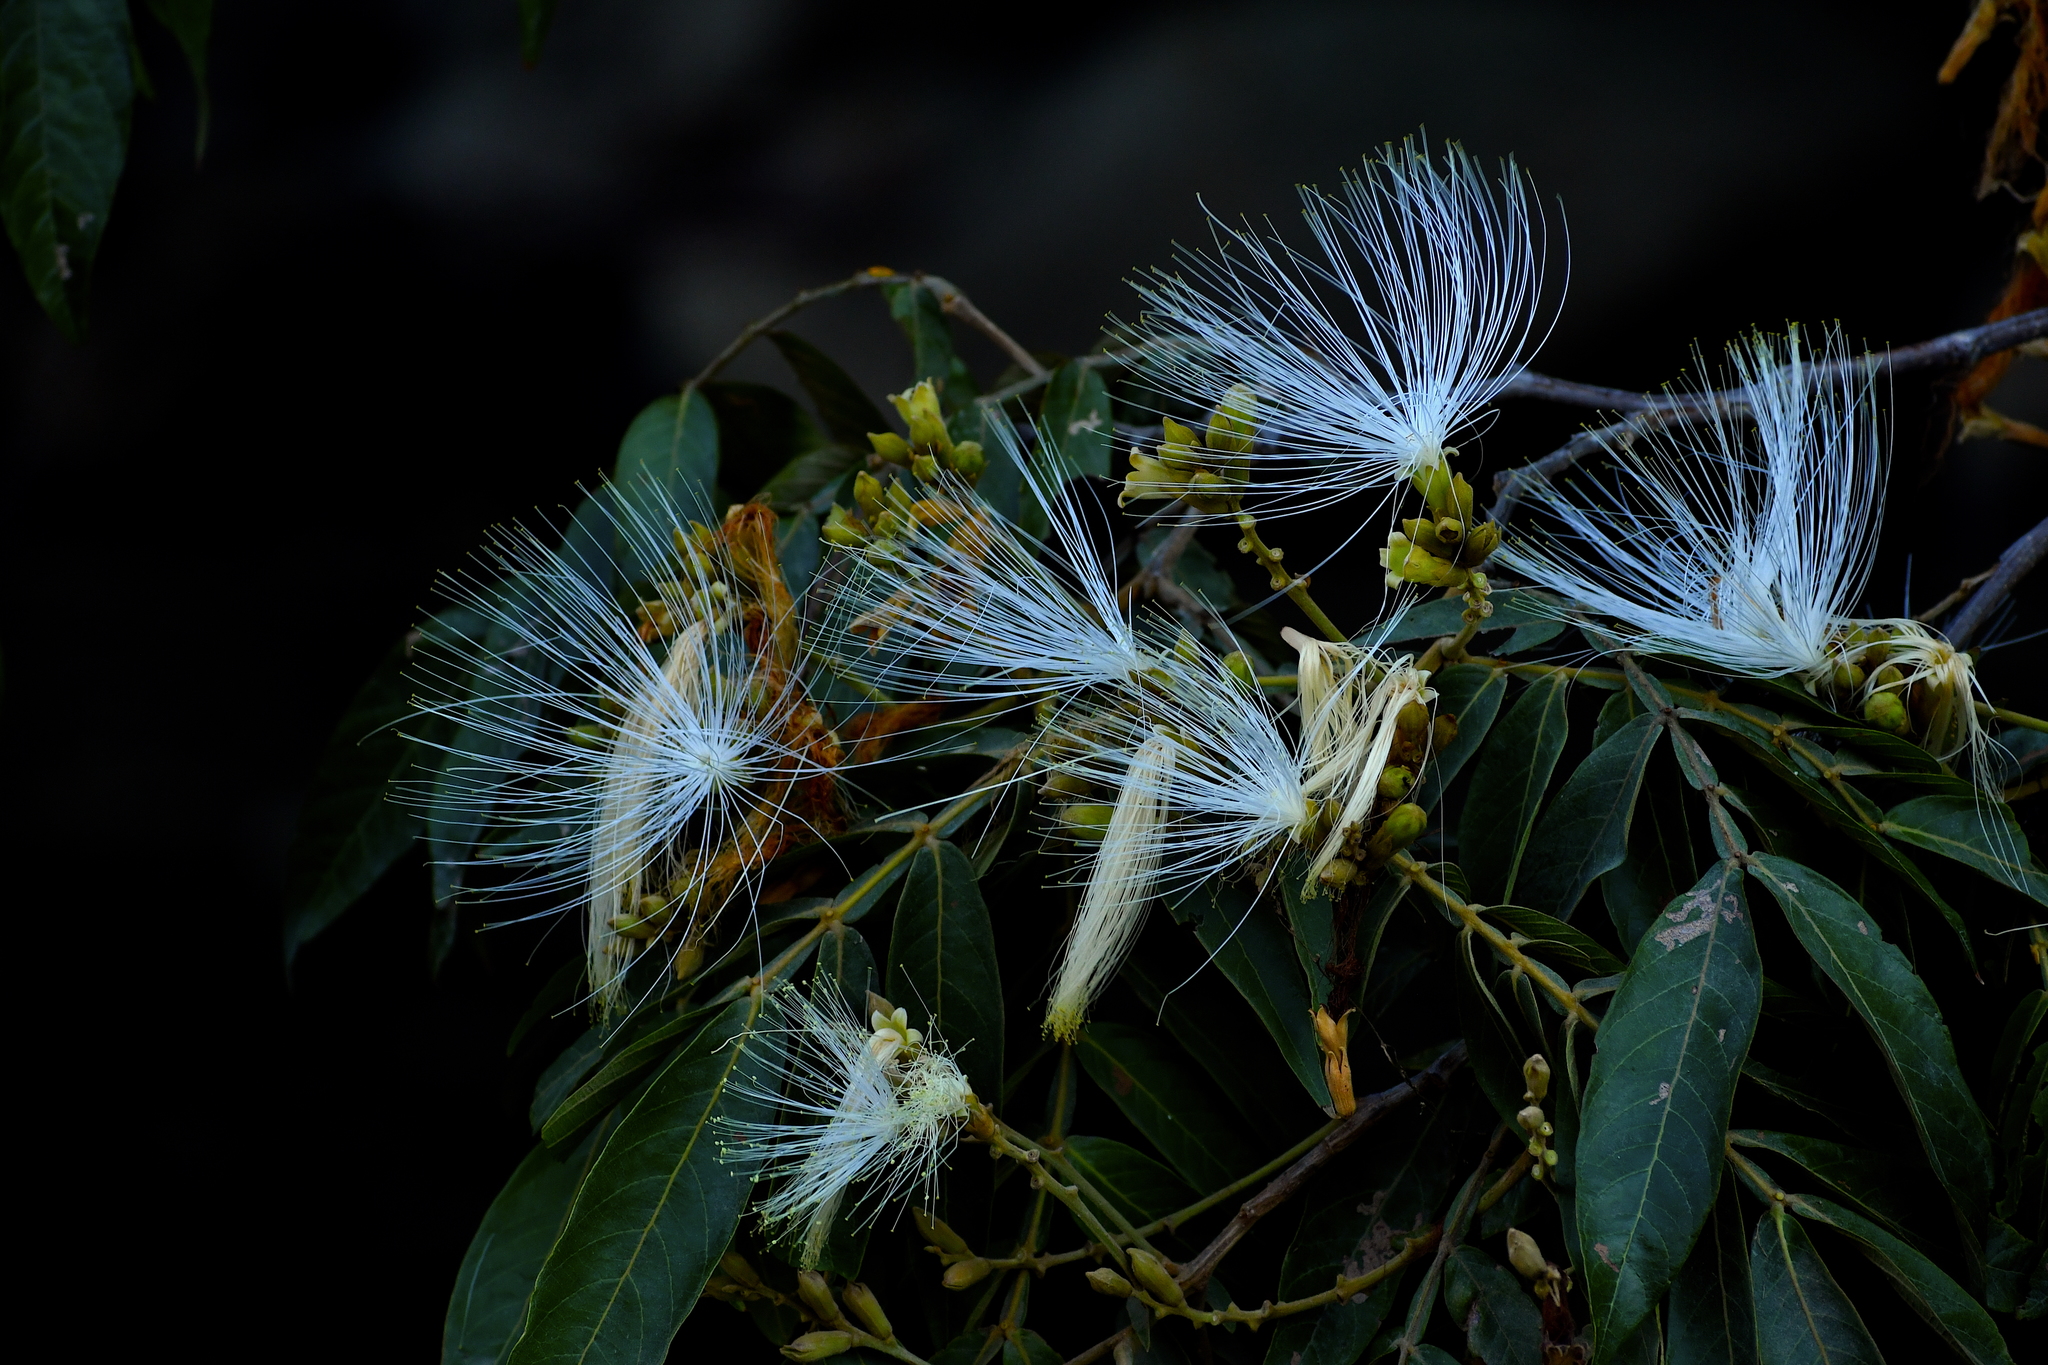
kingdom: Plantae
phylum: Tracheophyta
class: Magnoliopsida
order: Fabales
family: Fabaceae
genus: Inga
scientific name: Inga vera
